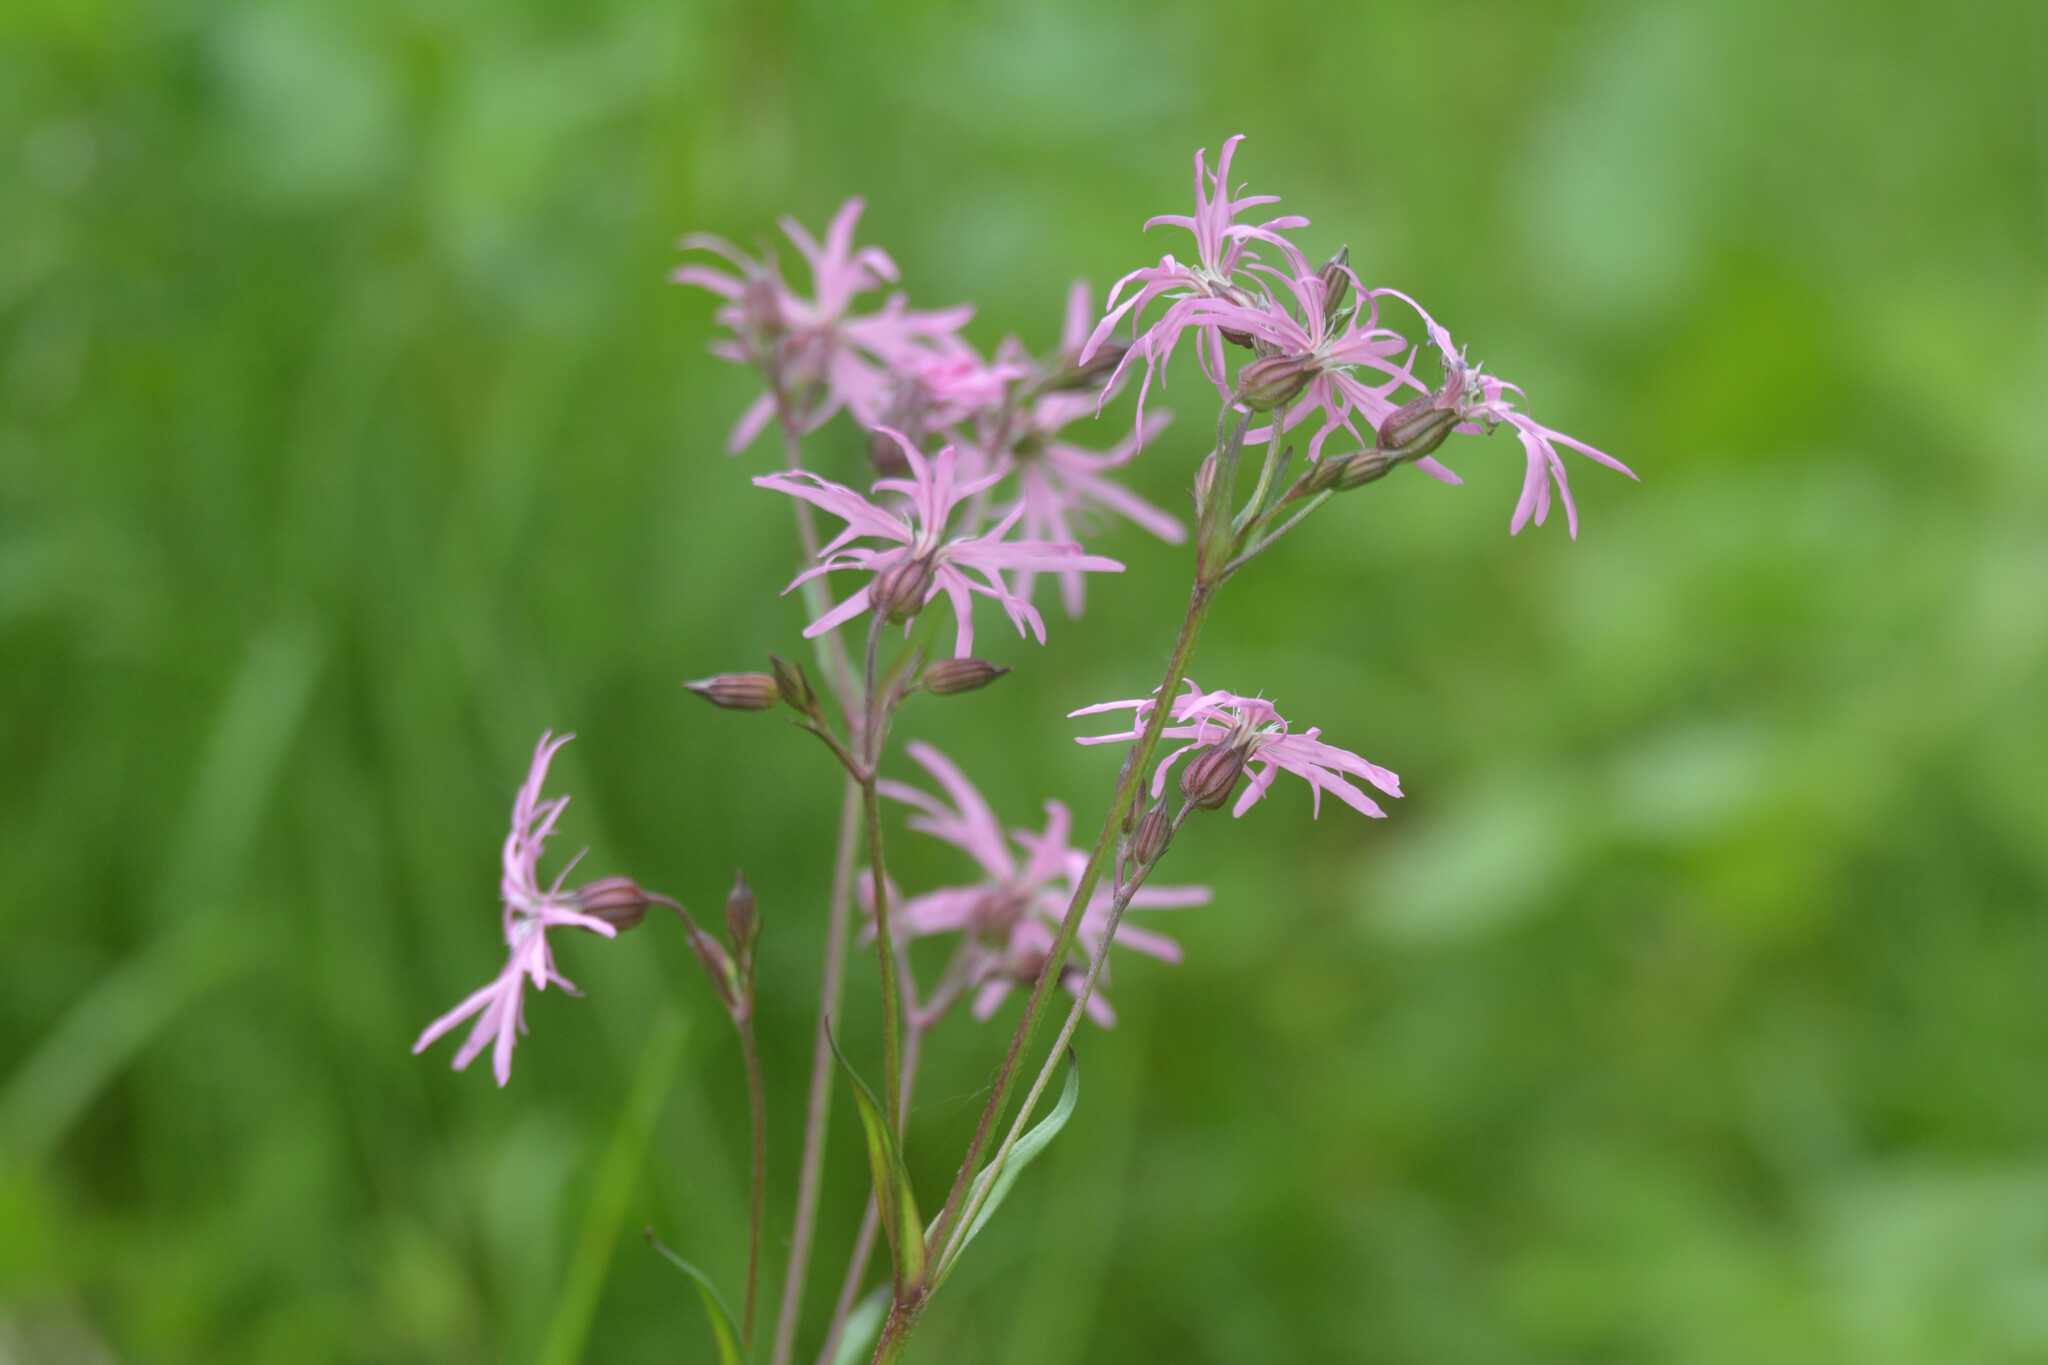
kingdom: Plantae
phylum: Tracheophyta
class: Magnoliopsida
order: Caryophyllales
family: Caryophyllaceae
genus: Silene
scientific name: Silene flos-cuculi
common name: Ragged-robin
